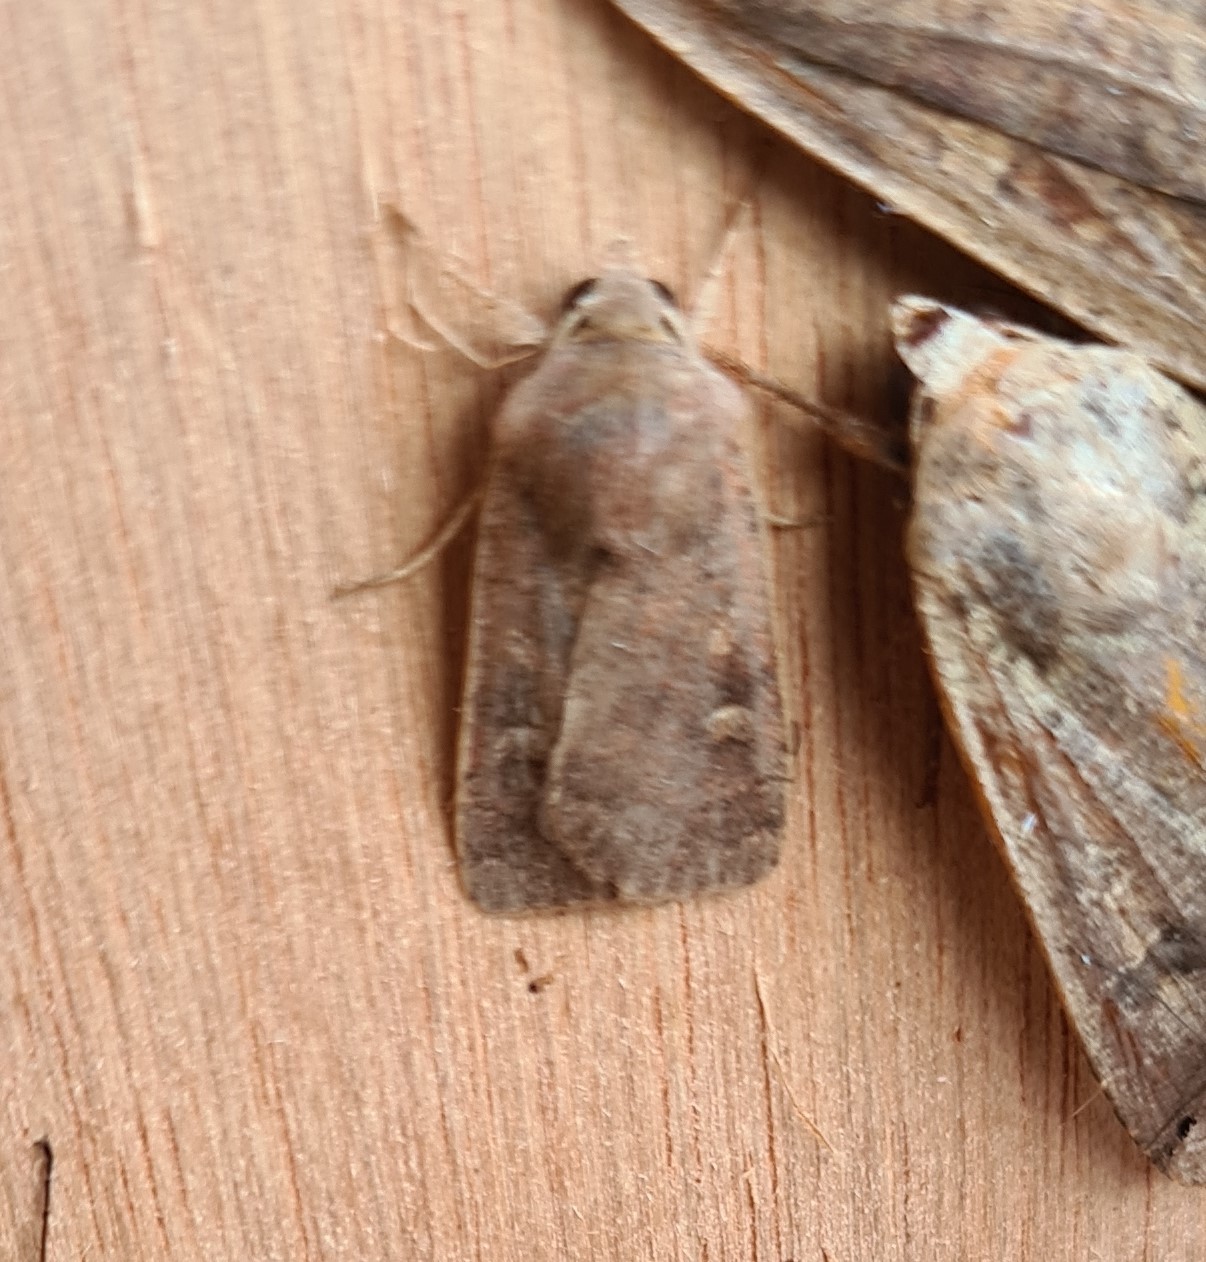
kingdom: Animalia
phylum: Arthropoda
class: Insecta
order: Lepidoptera
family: Noctuidae
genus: Xestia
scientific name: Xestia xanthographa
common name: Square-spot rustic
